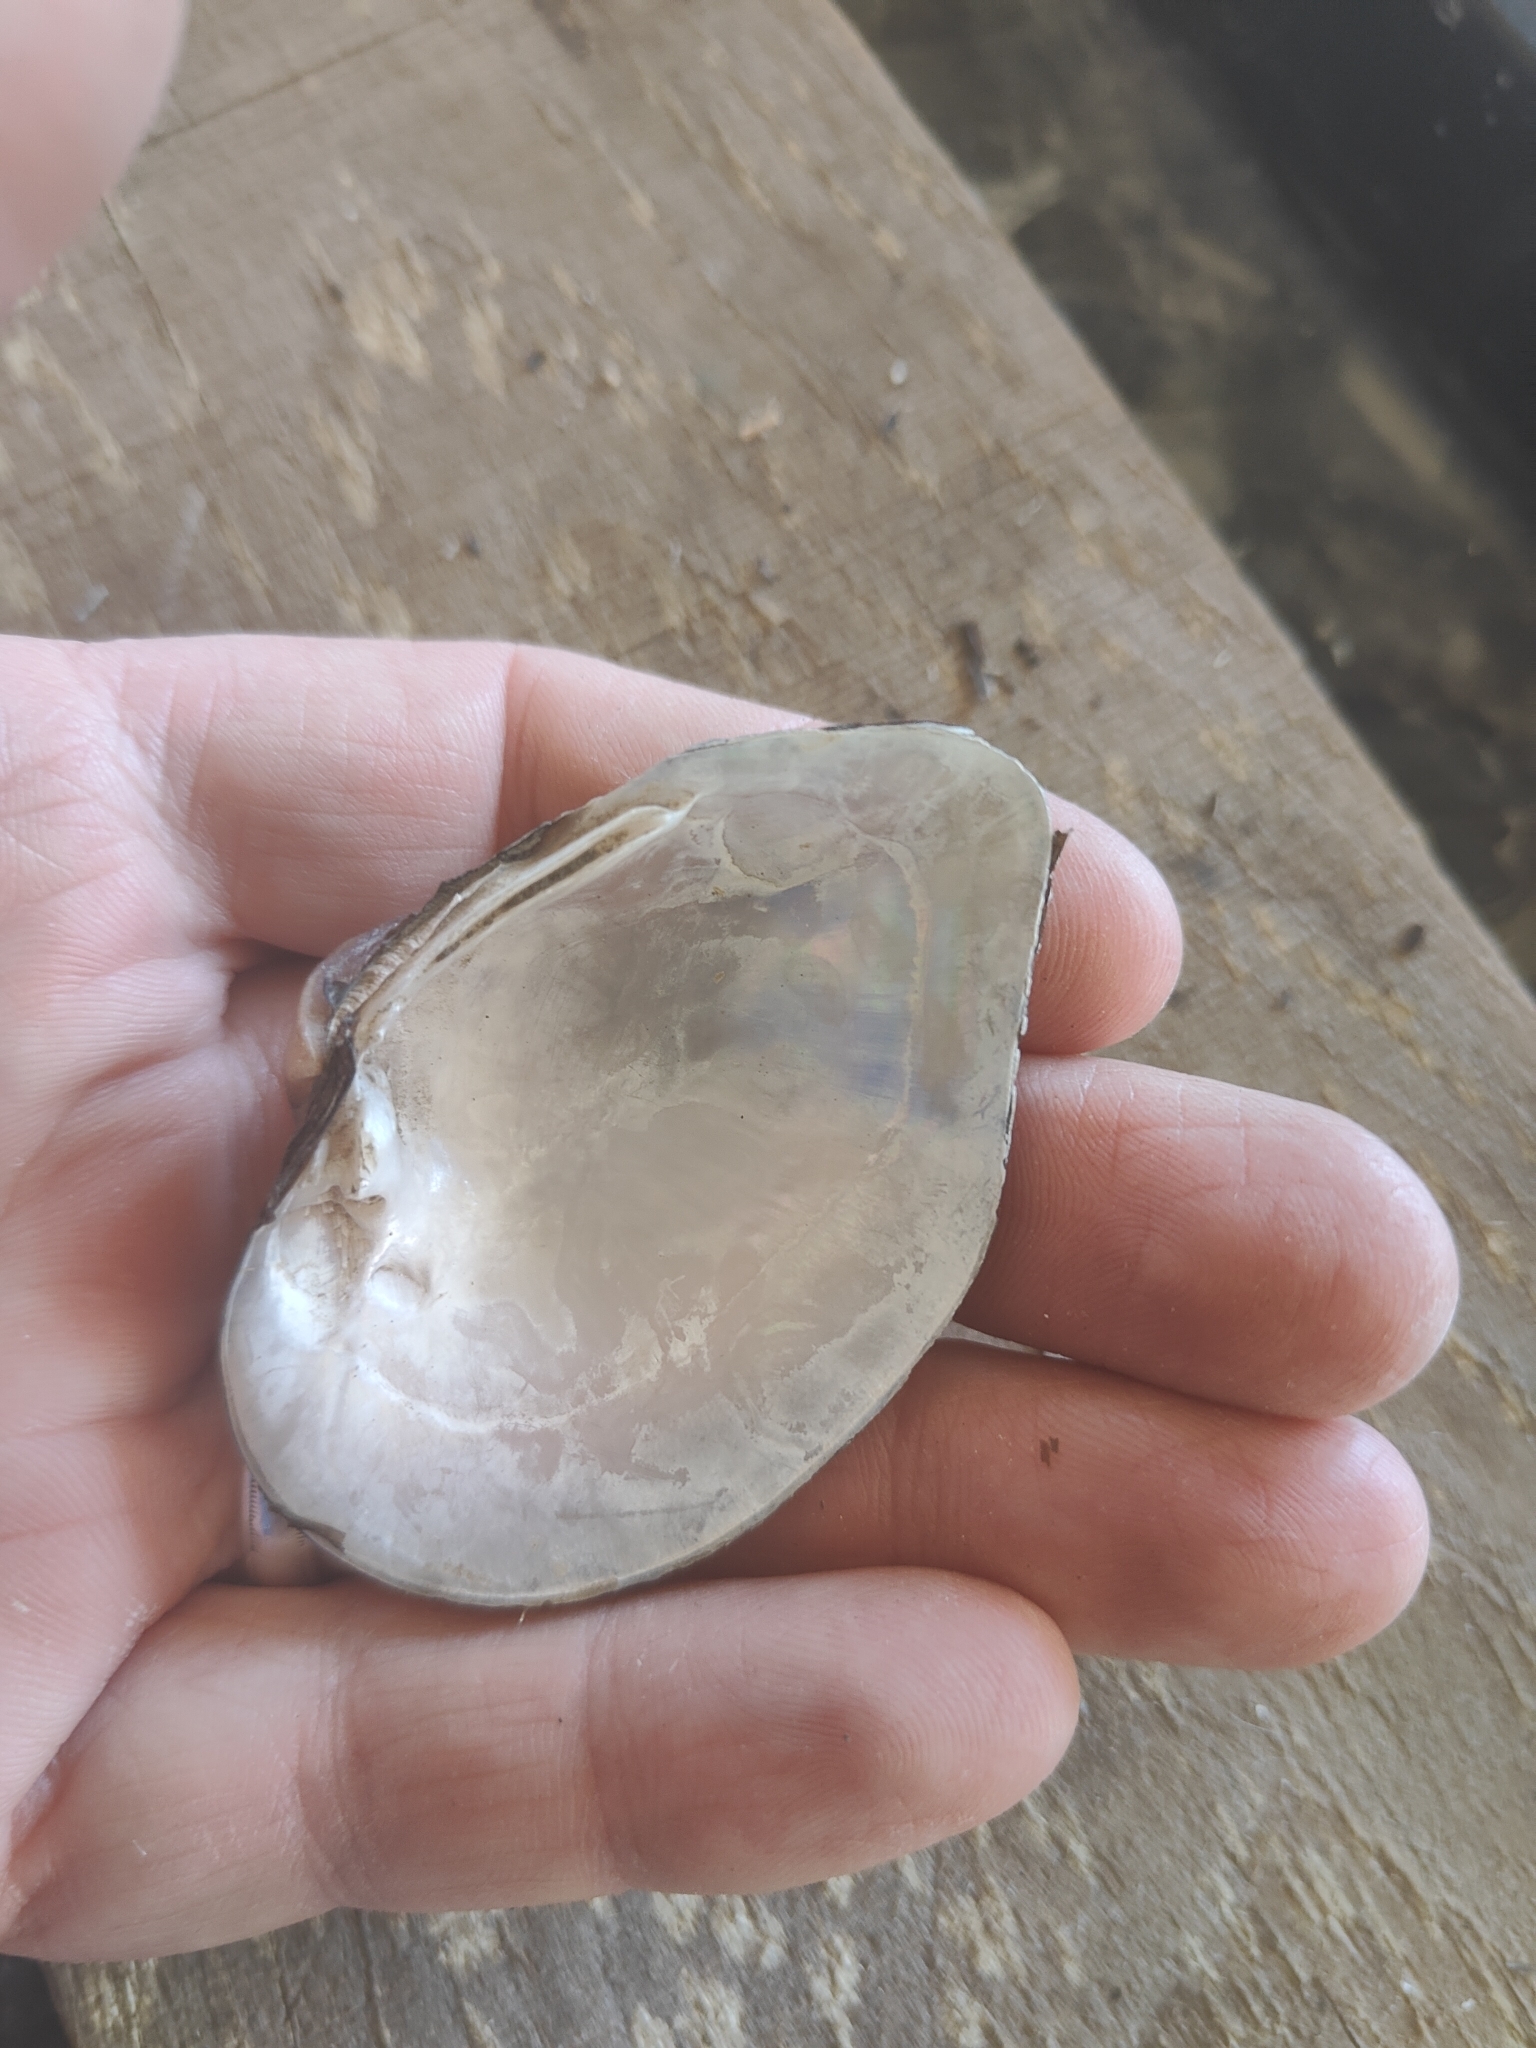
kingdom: Animalia
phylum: Mollusca
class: Bivalvia
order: Unionida
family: Unionidae
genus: Truncilla
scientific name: Truncilla truncata
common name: Deertoe
